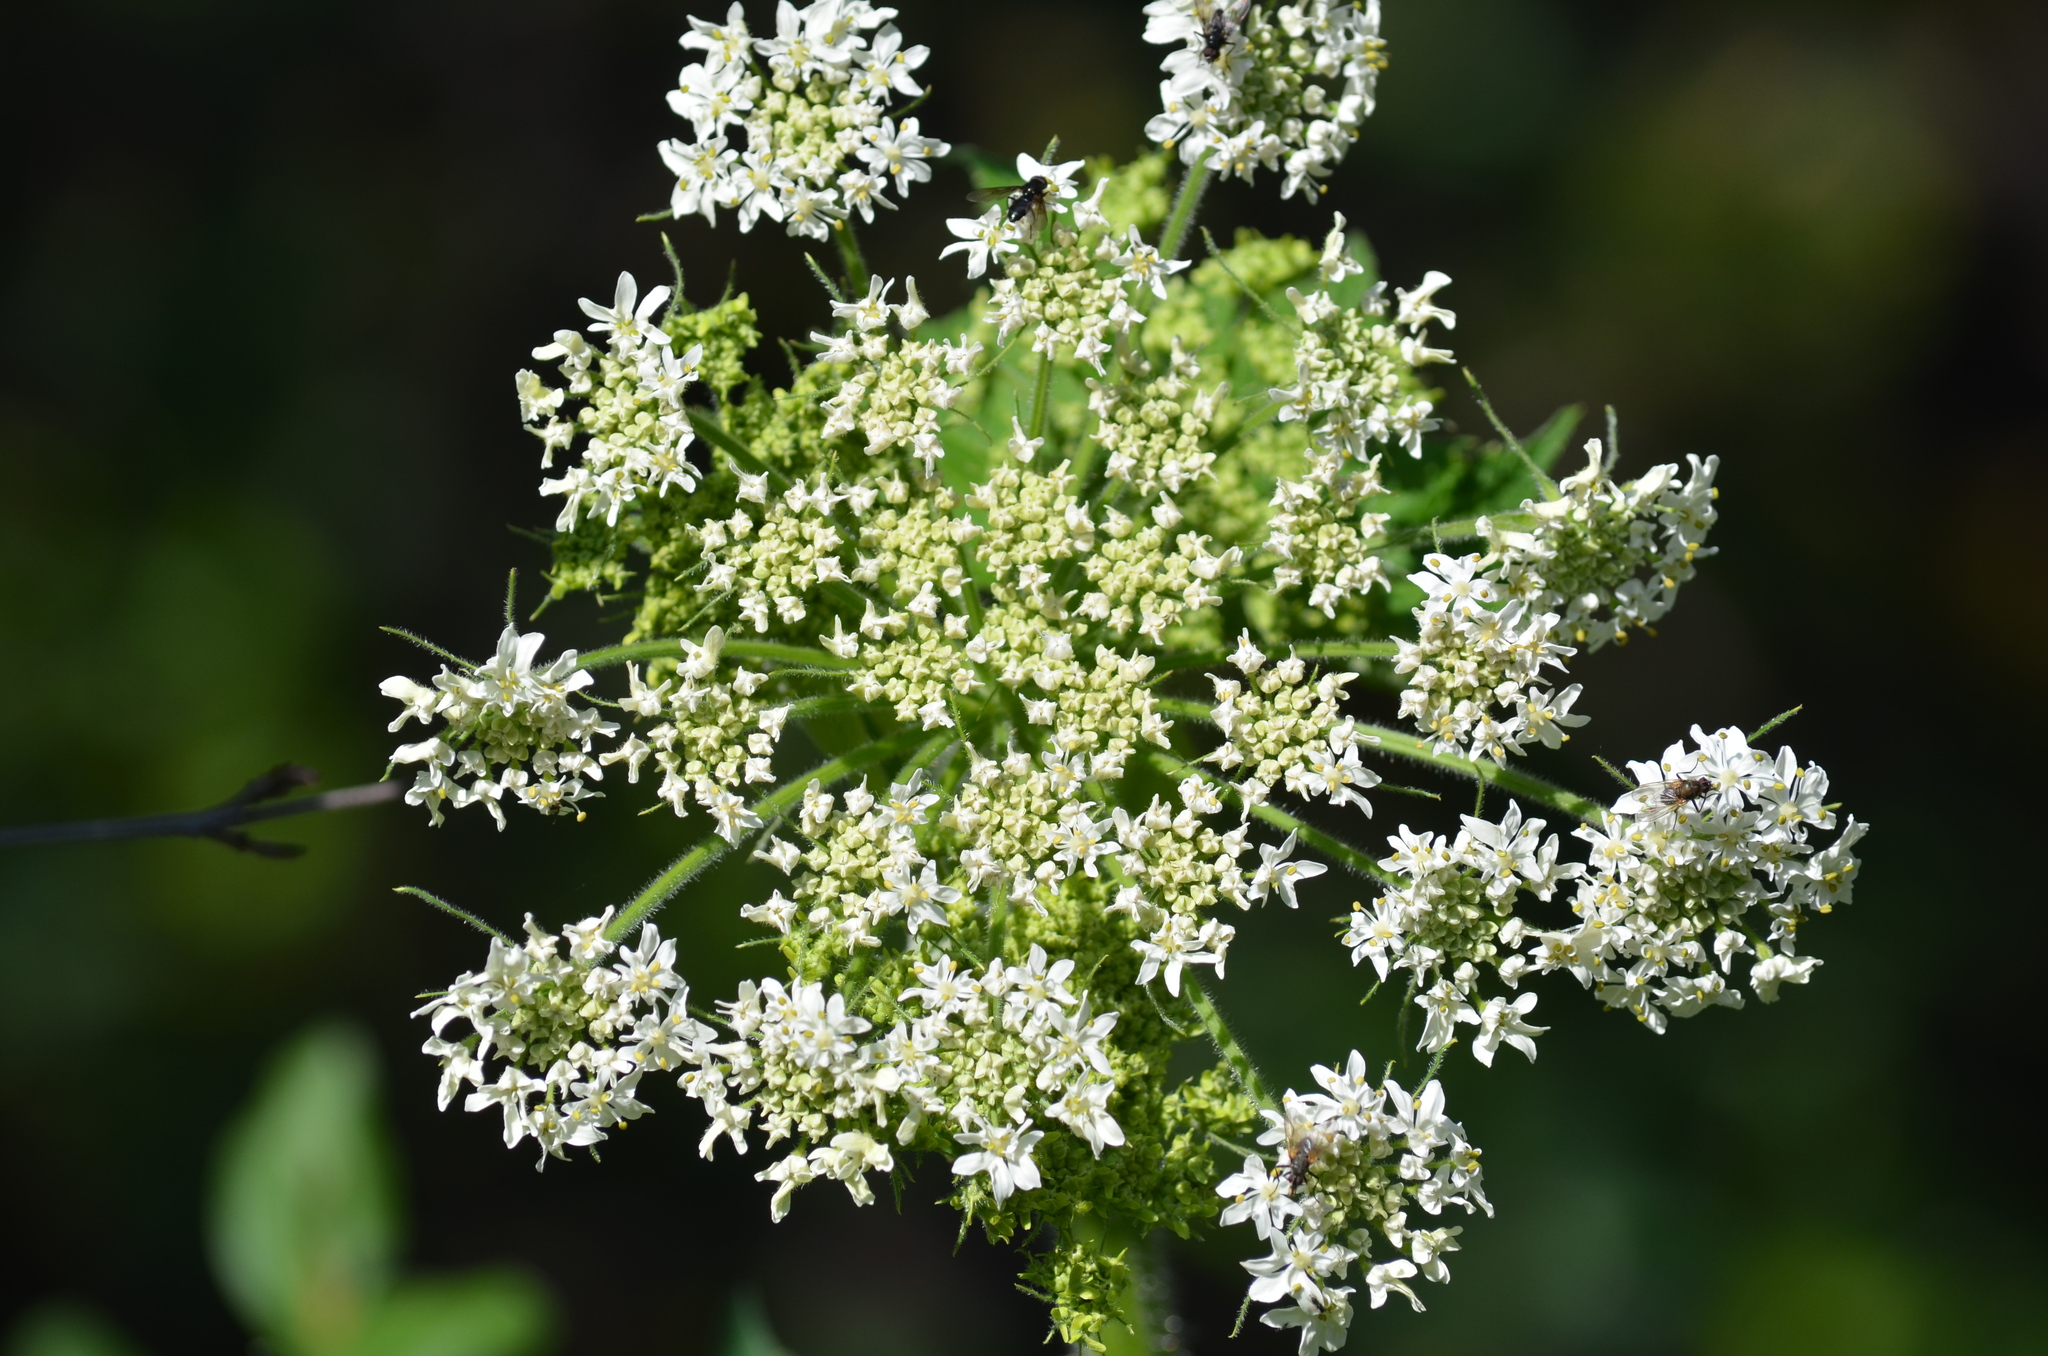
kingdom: Plantae
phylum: Tracheophyta
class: Magnoliopsida
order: Apiales
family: Apiaceae
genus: Heracleum
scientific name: Heracleum maximum
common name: American cow parsnip
